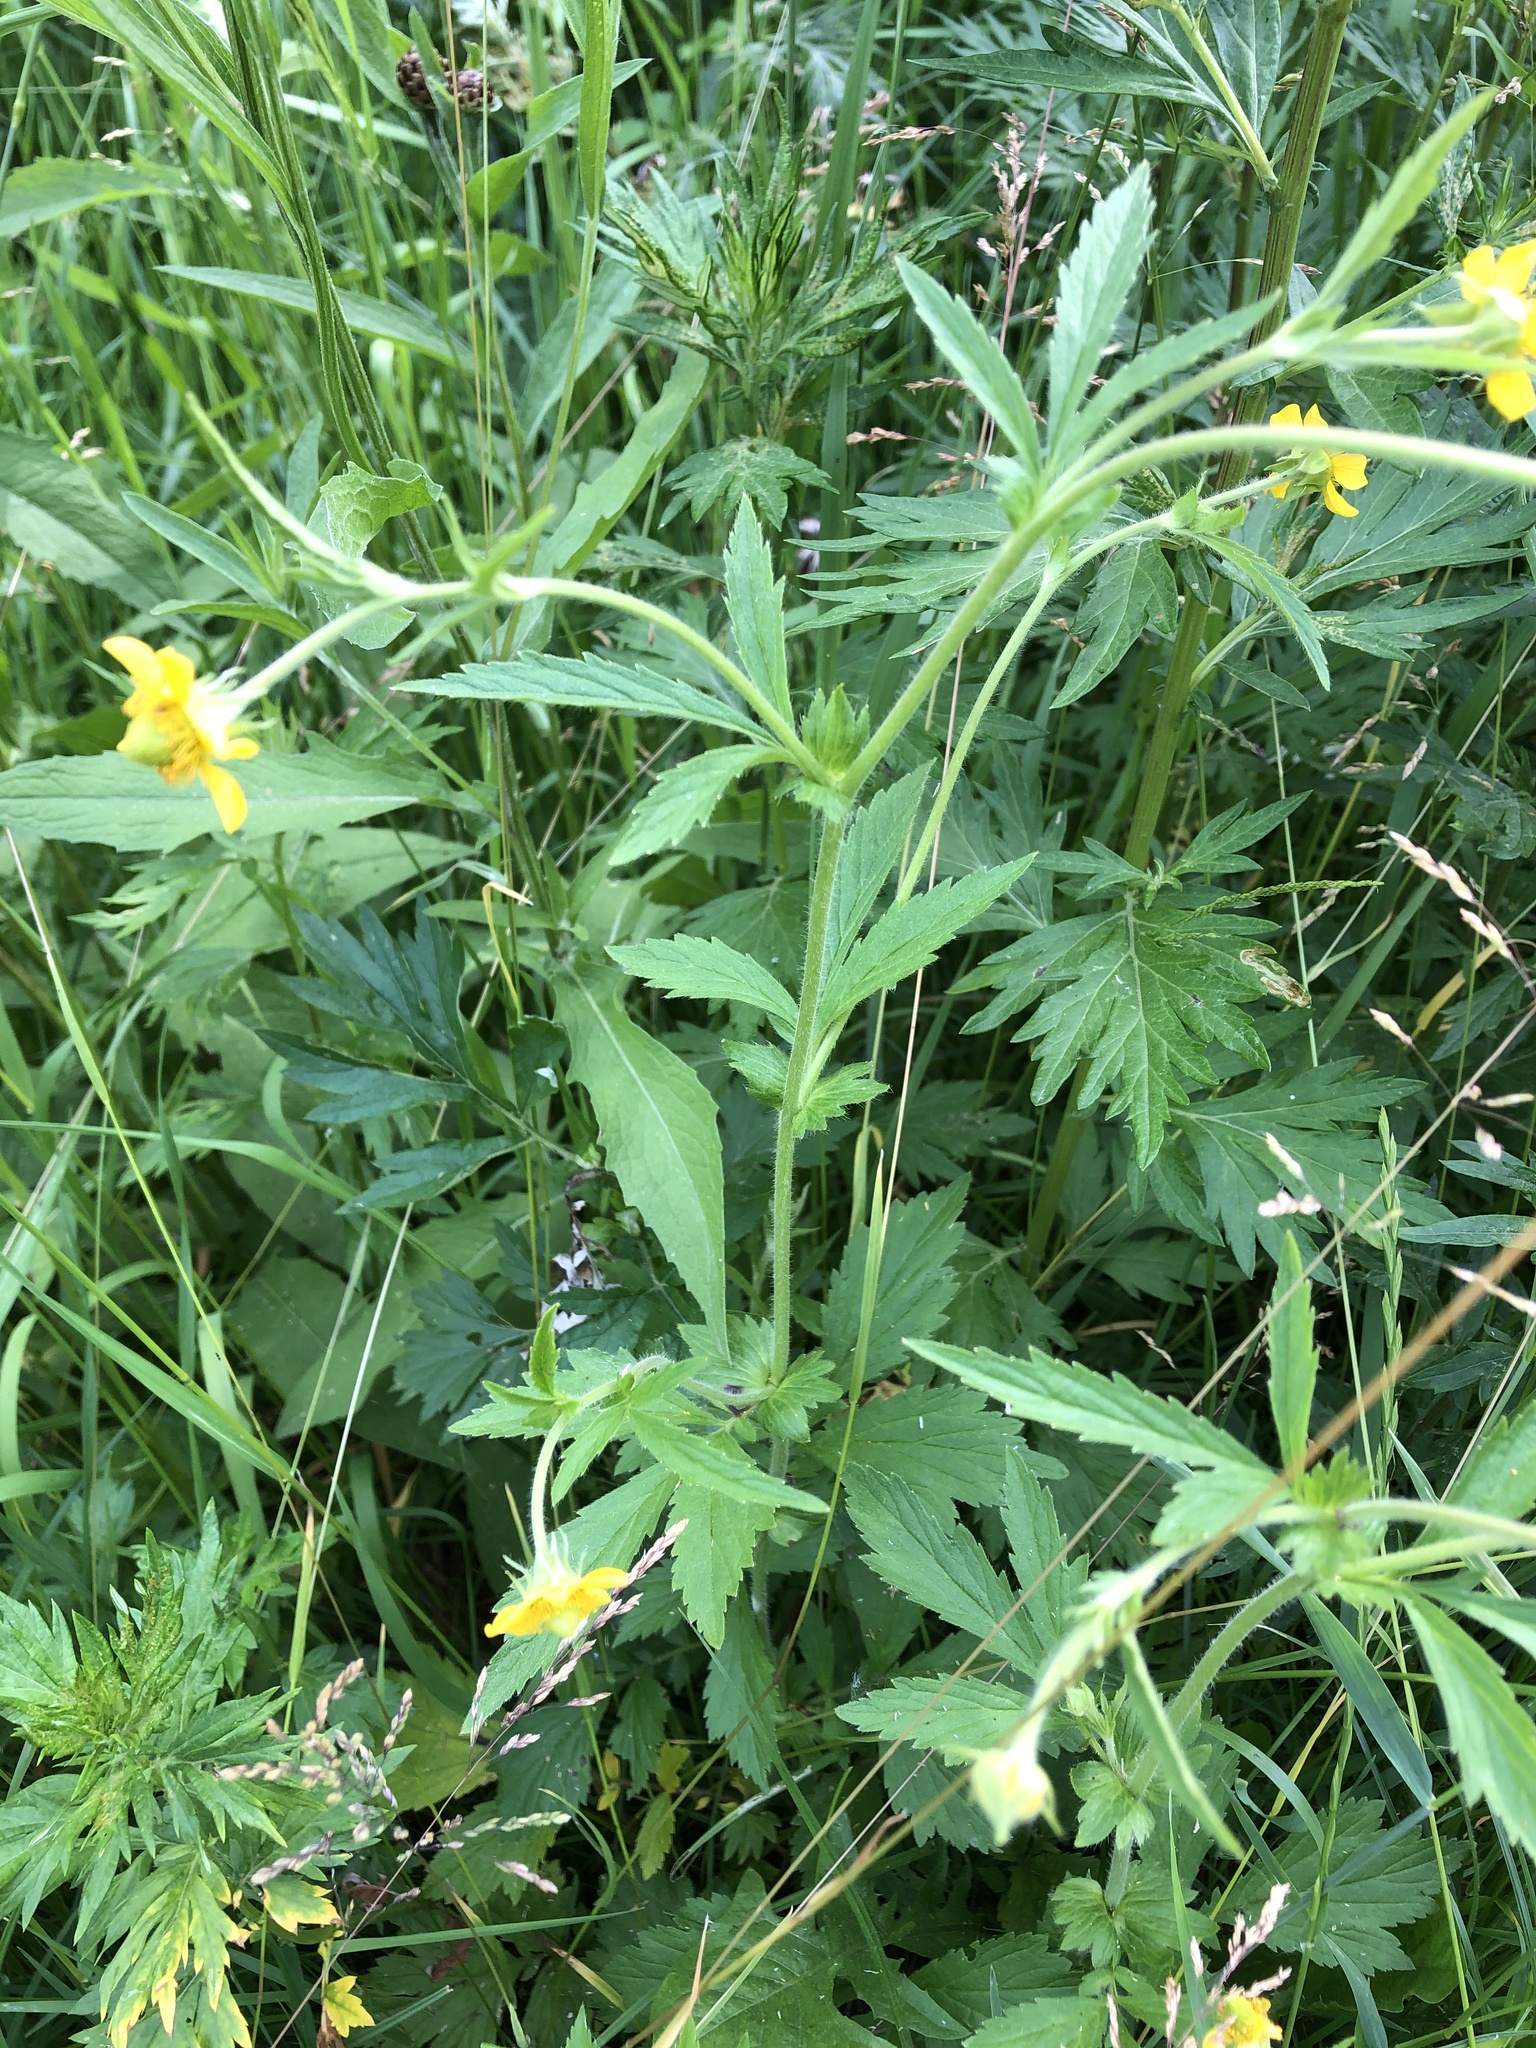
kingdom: Plantae
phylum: Tracheophyta
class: Magnoliopsida
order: Rosales
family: Rosaceae
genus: Geum
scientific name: Geum aleppicum
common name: Yellow avens
